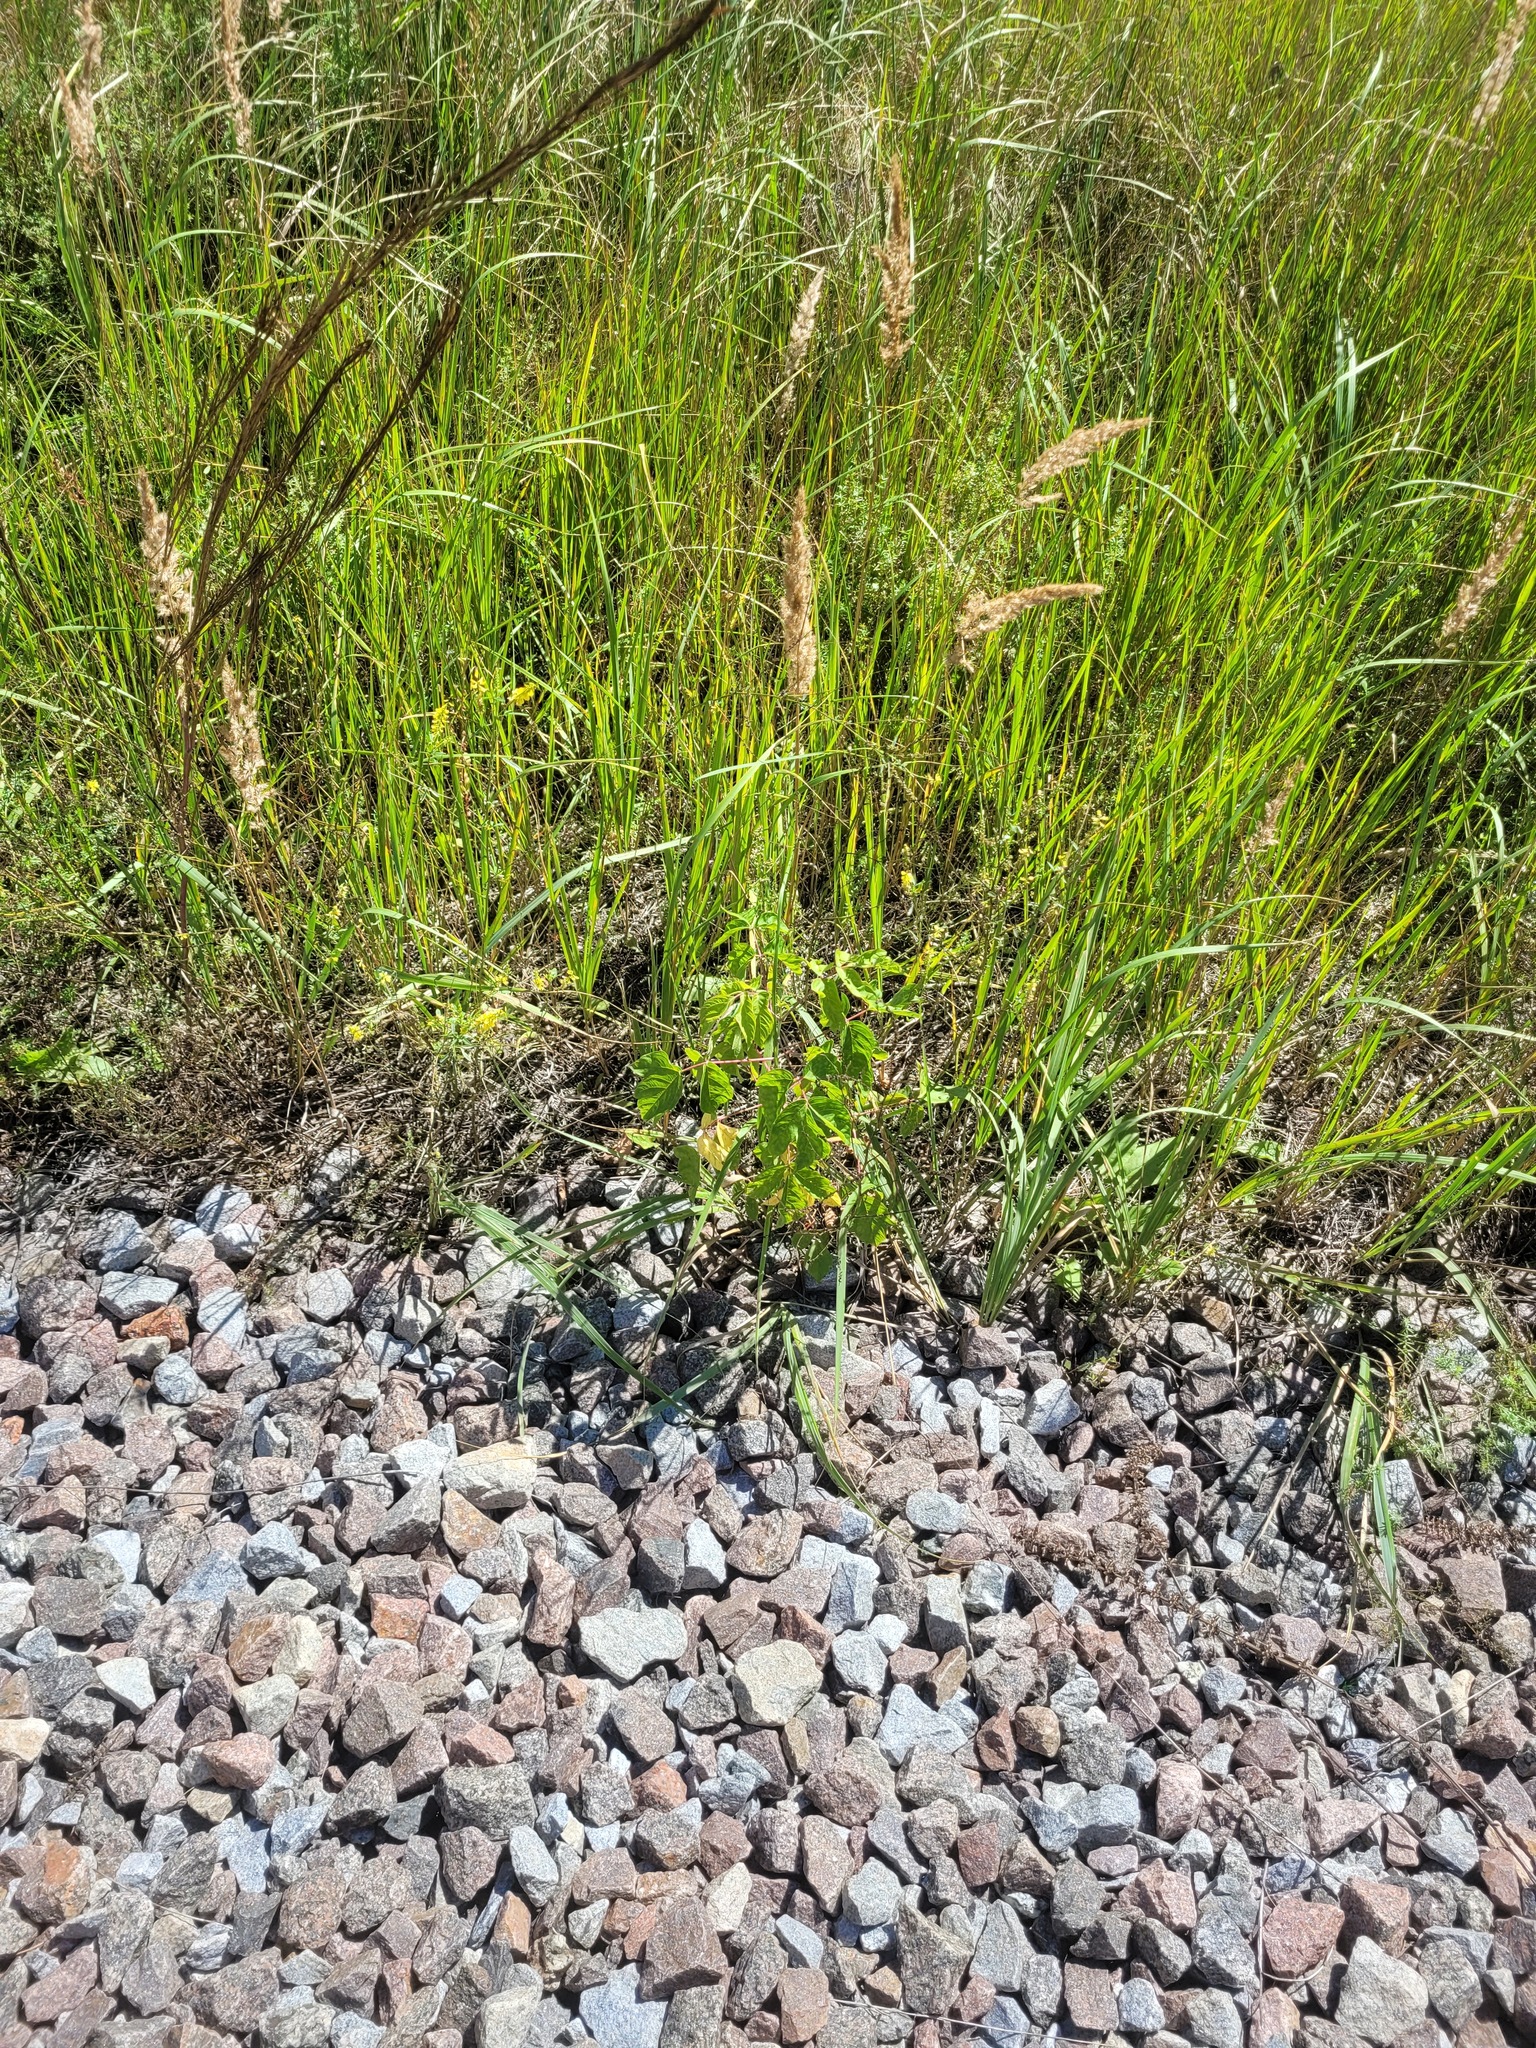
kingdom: Plantae
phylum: Tracheophyta
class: Magnoliopsida
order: Sapindales
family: Sapindaceae
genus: Acer
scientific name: Acer negundo
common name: Ashleaf maple
